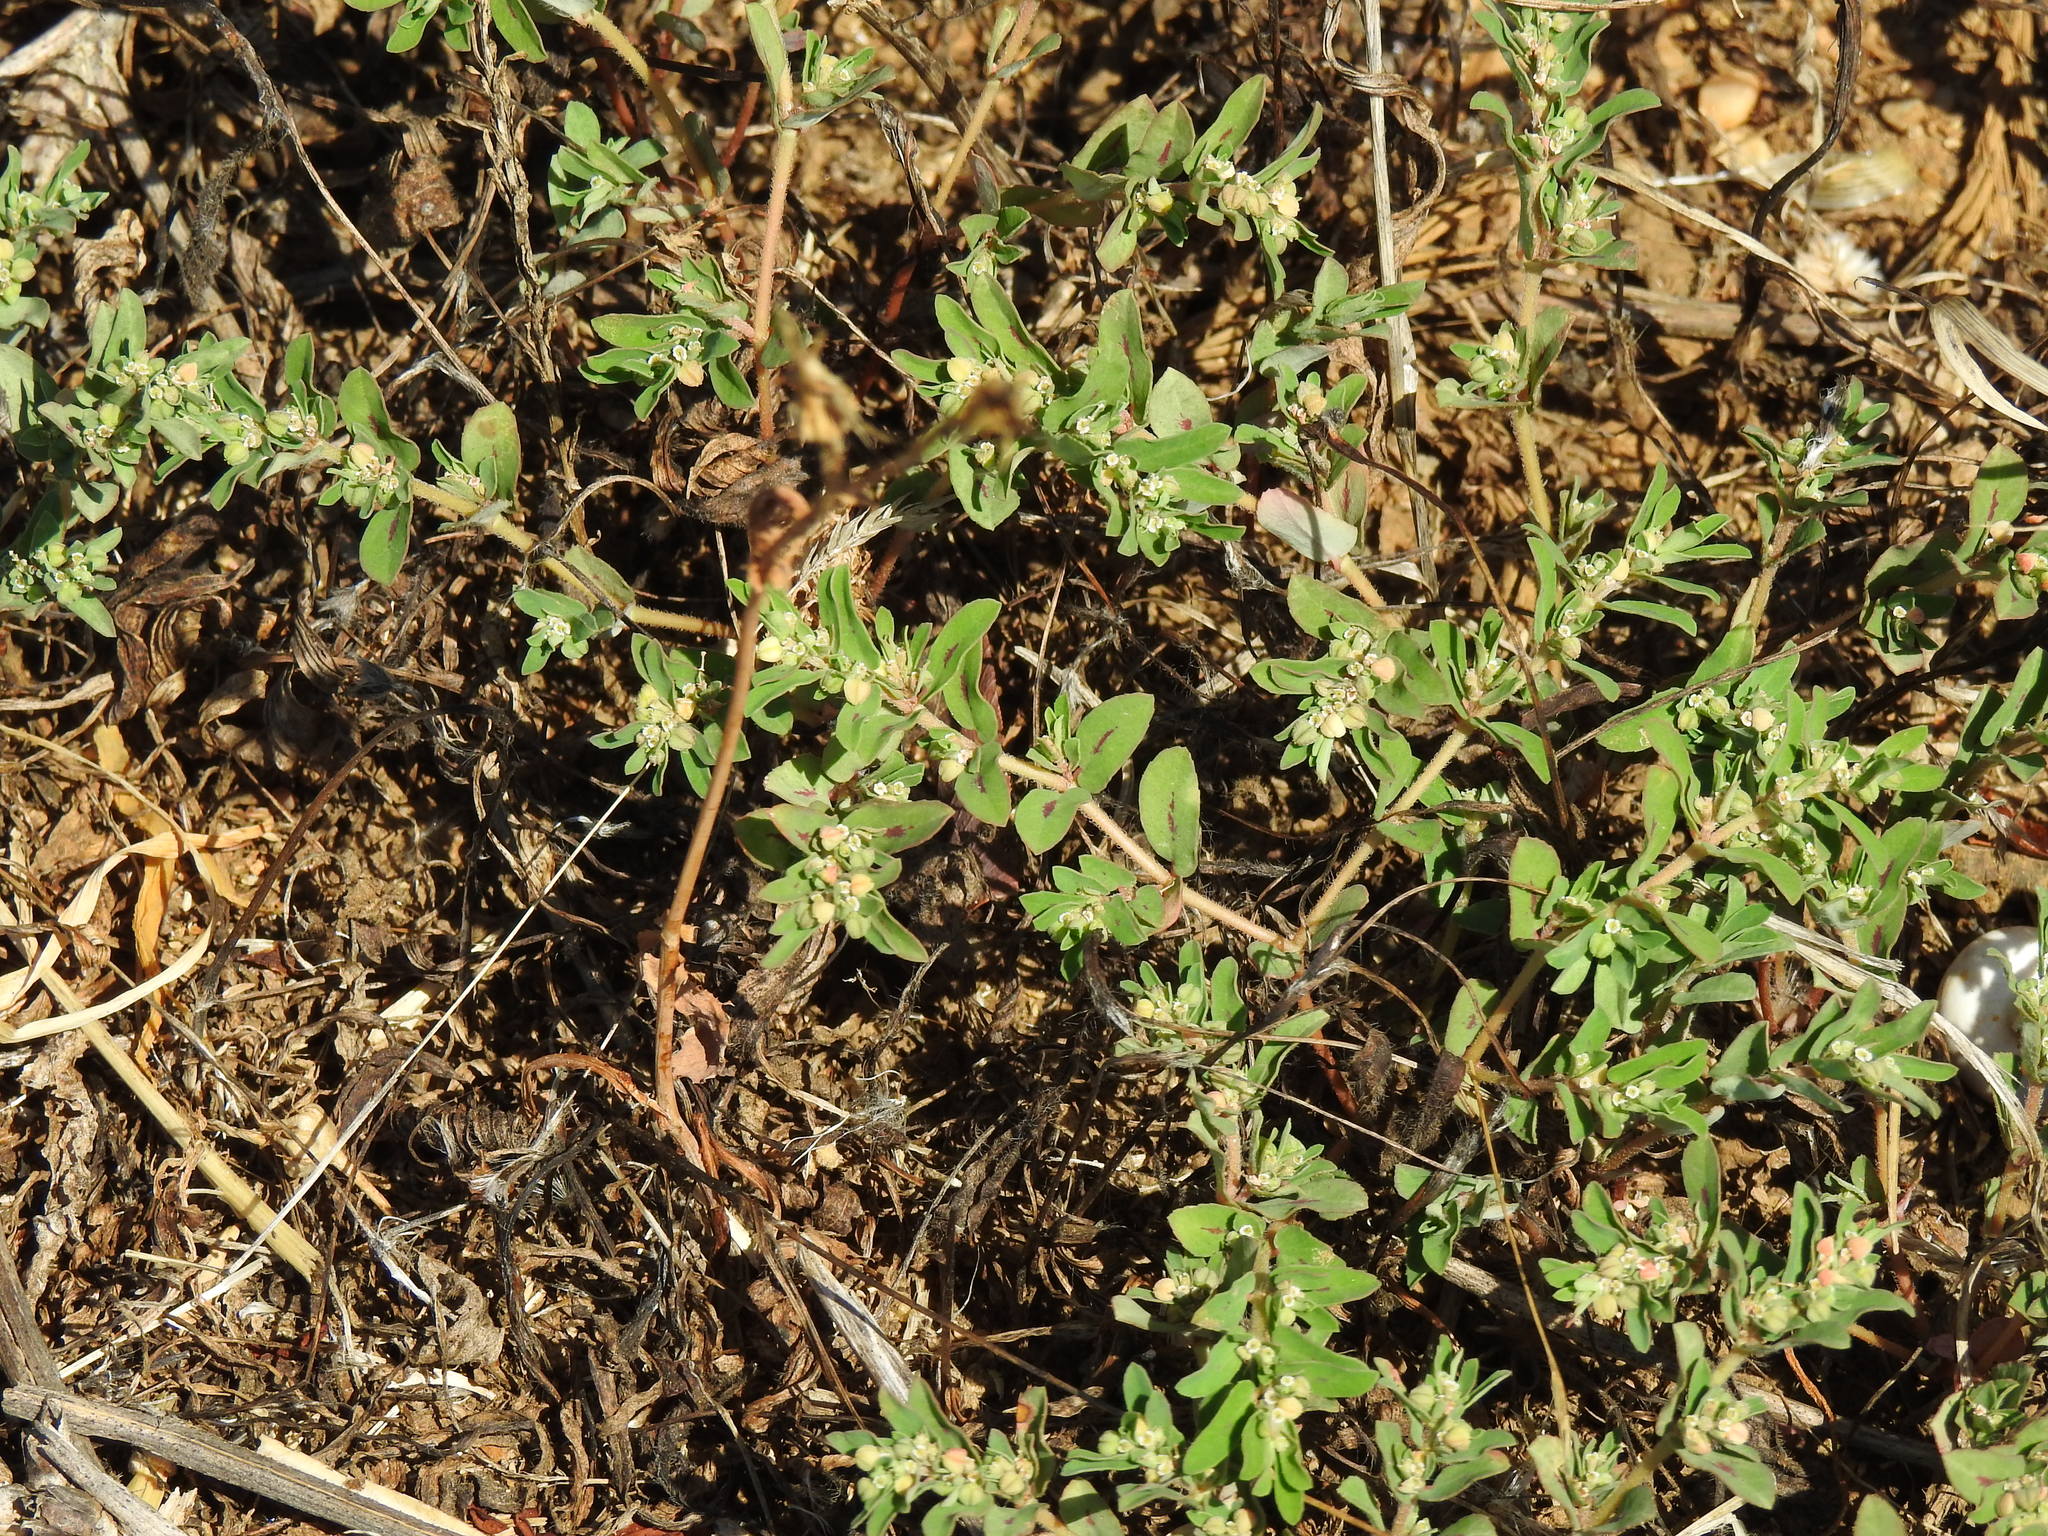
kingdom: Plantae
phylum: Tracheophyta
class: Magnoliopsida
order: Malpighiales
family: Euphorbiaceae
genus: Euphorbia
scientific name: Euphorbia maculata
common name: Spotted spurge
